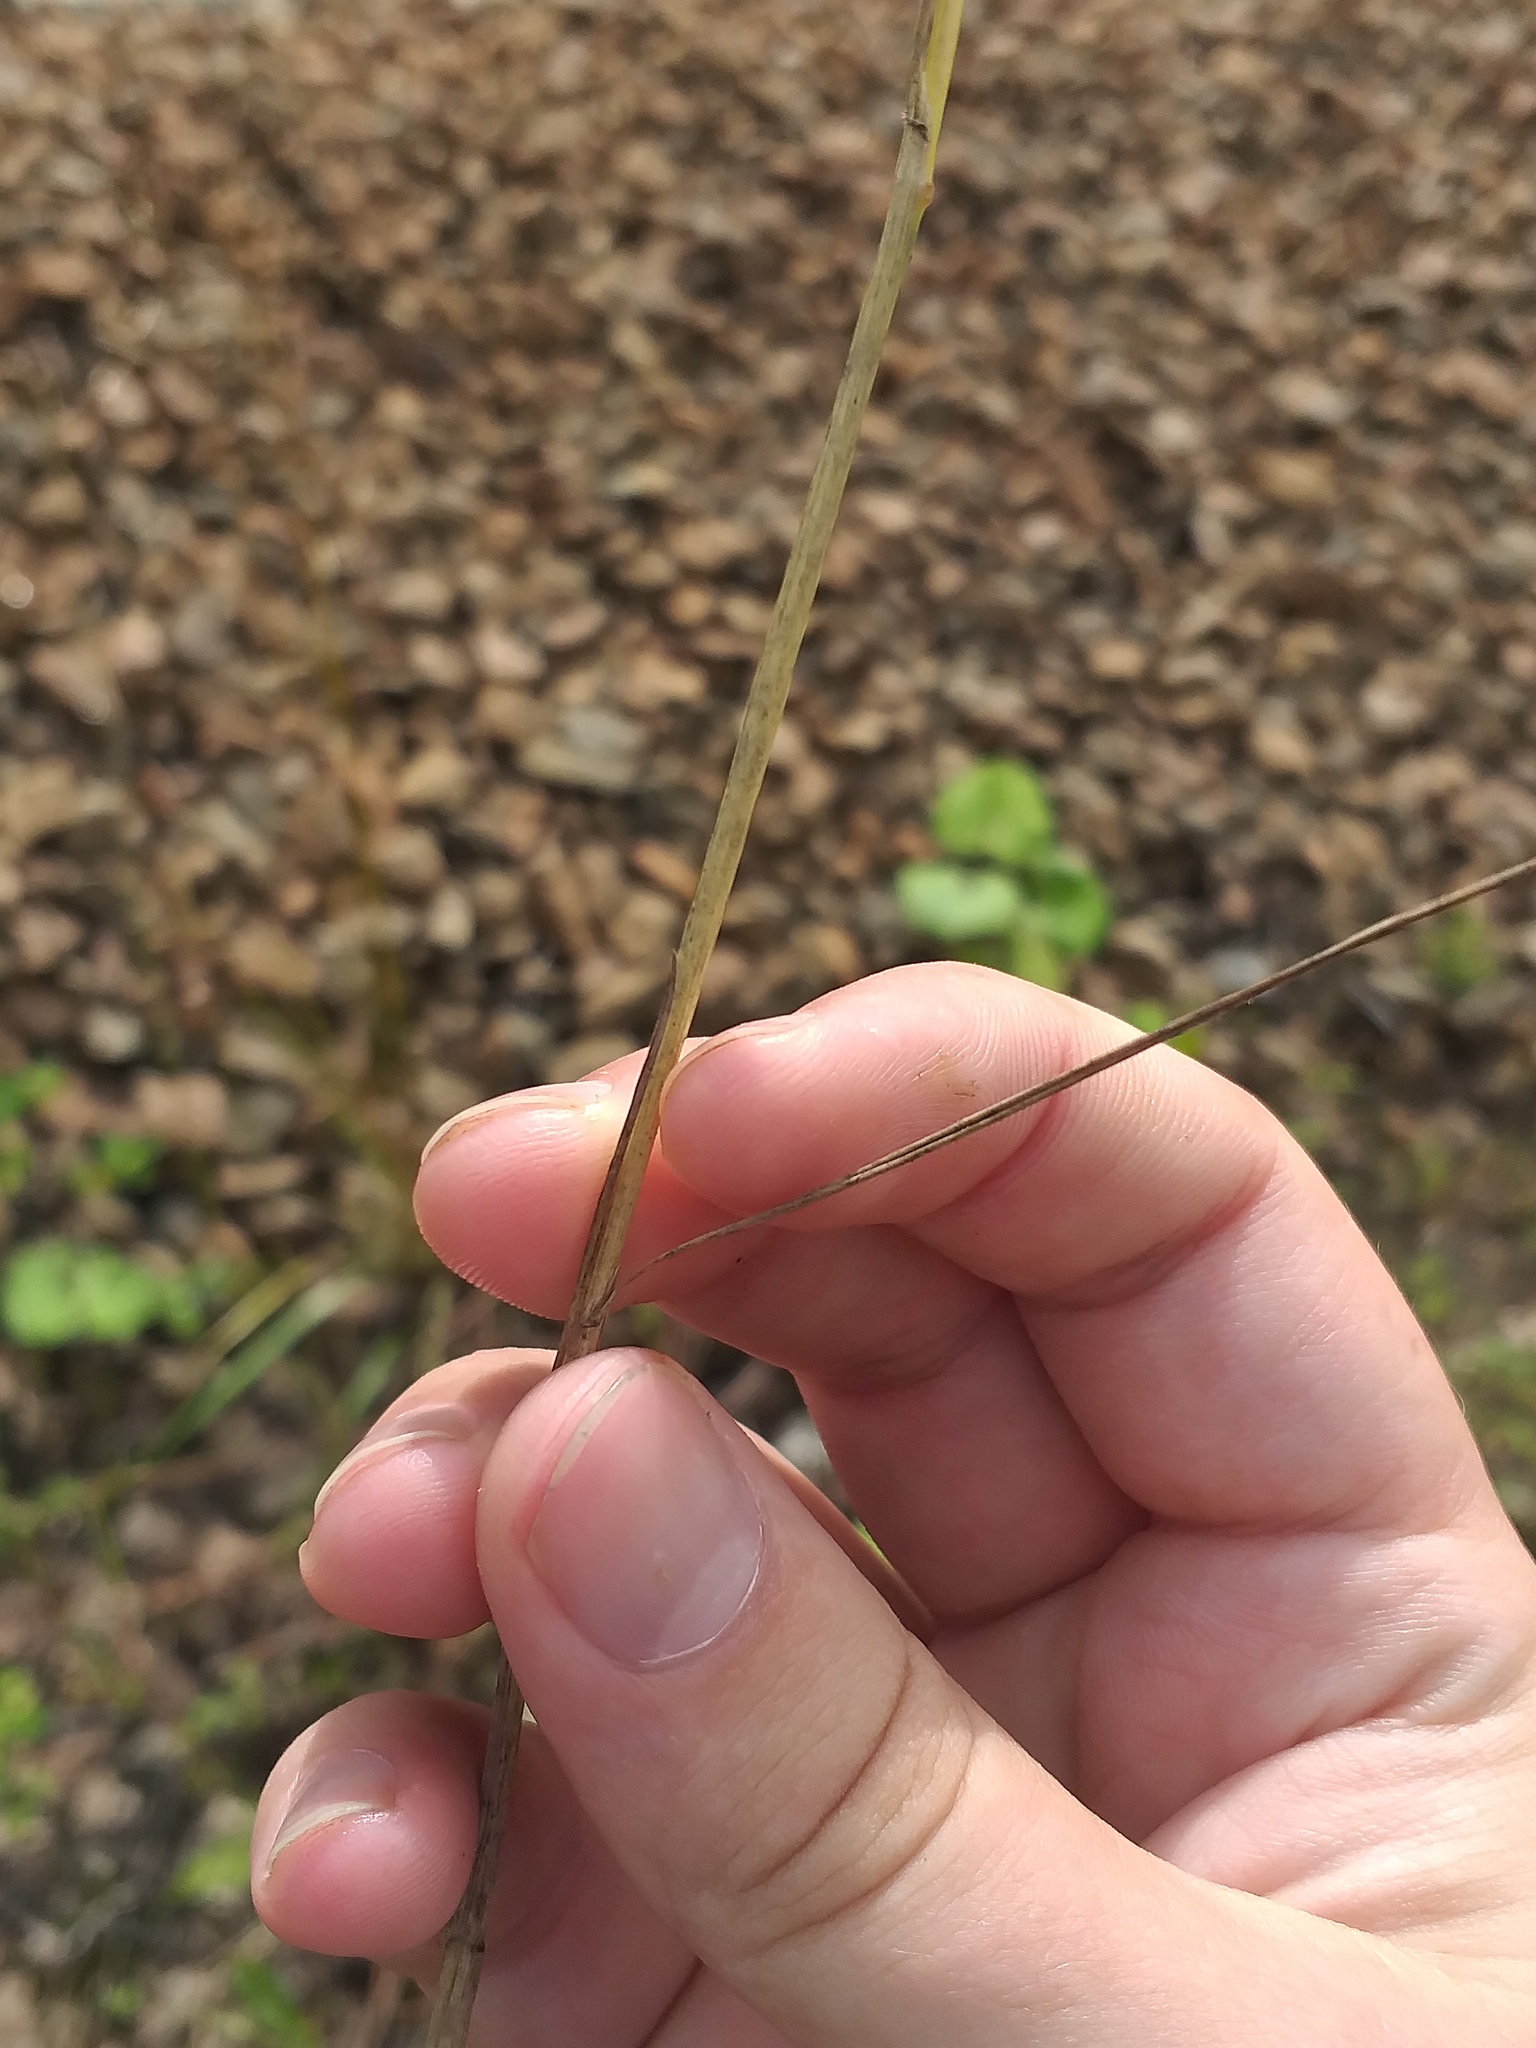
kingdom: Plantae
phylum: Tracheophyta
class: Liliopsida
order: Poales
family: Poaceae
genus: Poa
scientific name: Poa palustris
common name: Swamp meadow-grass
